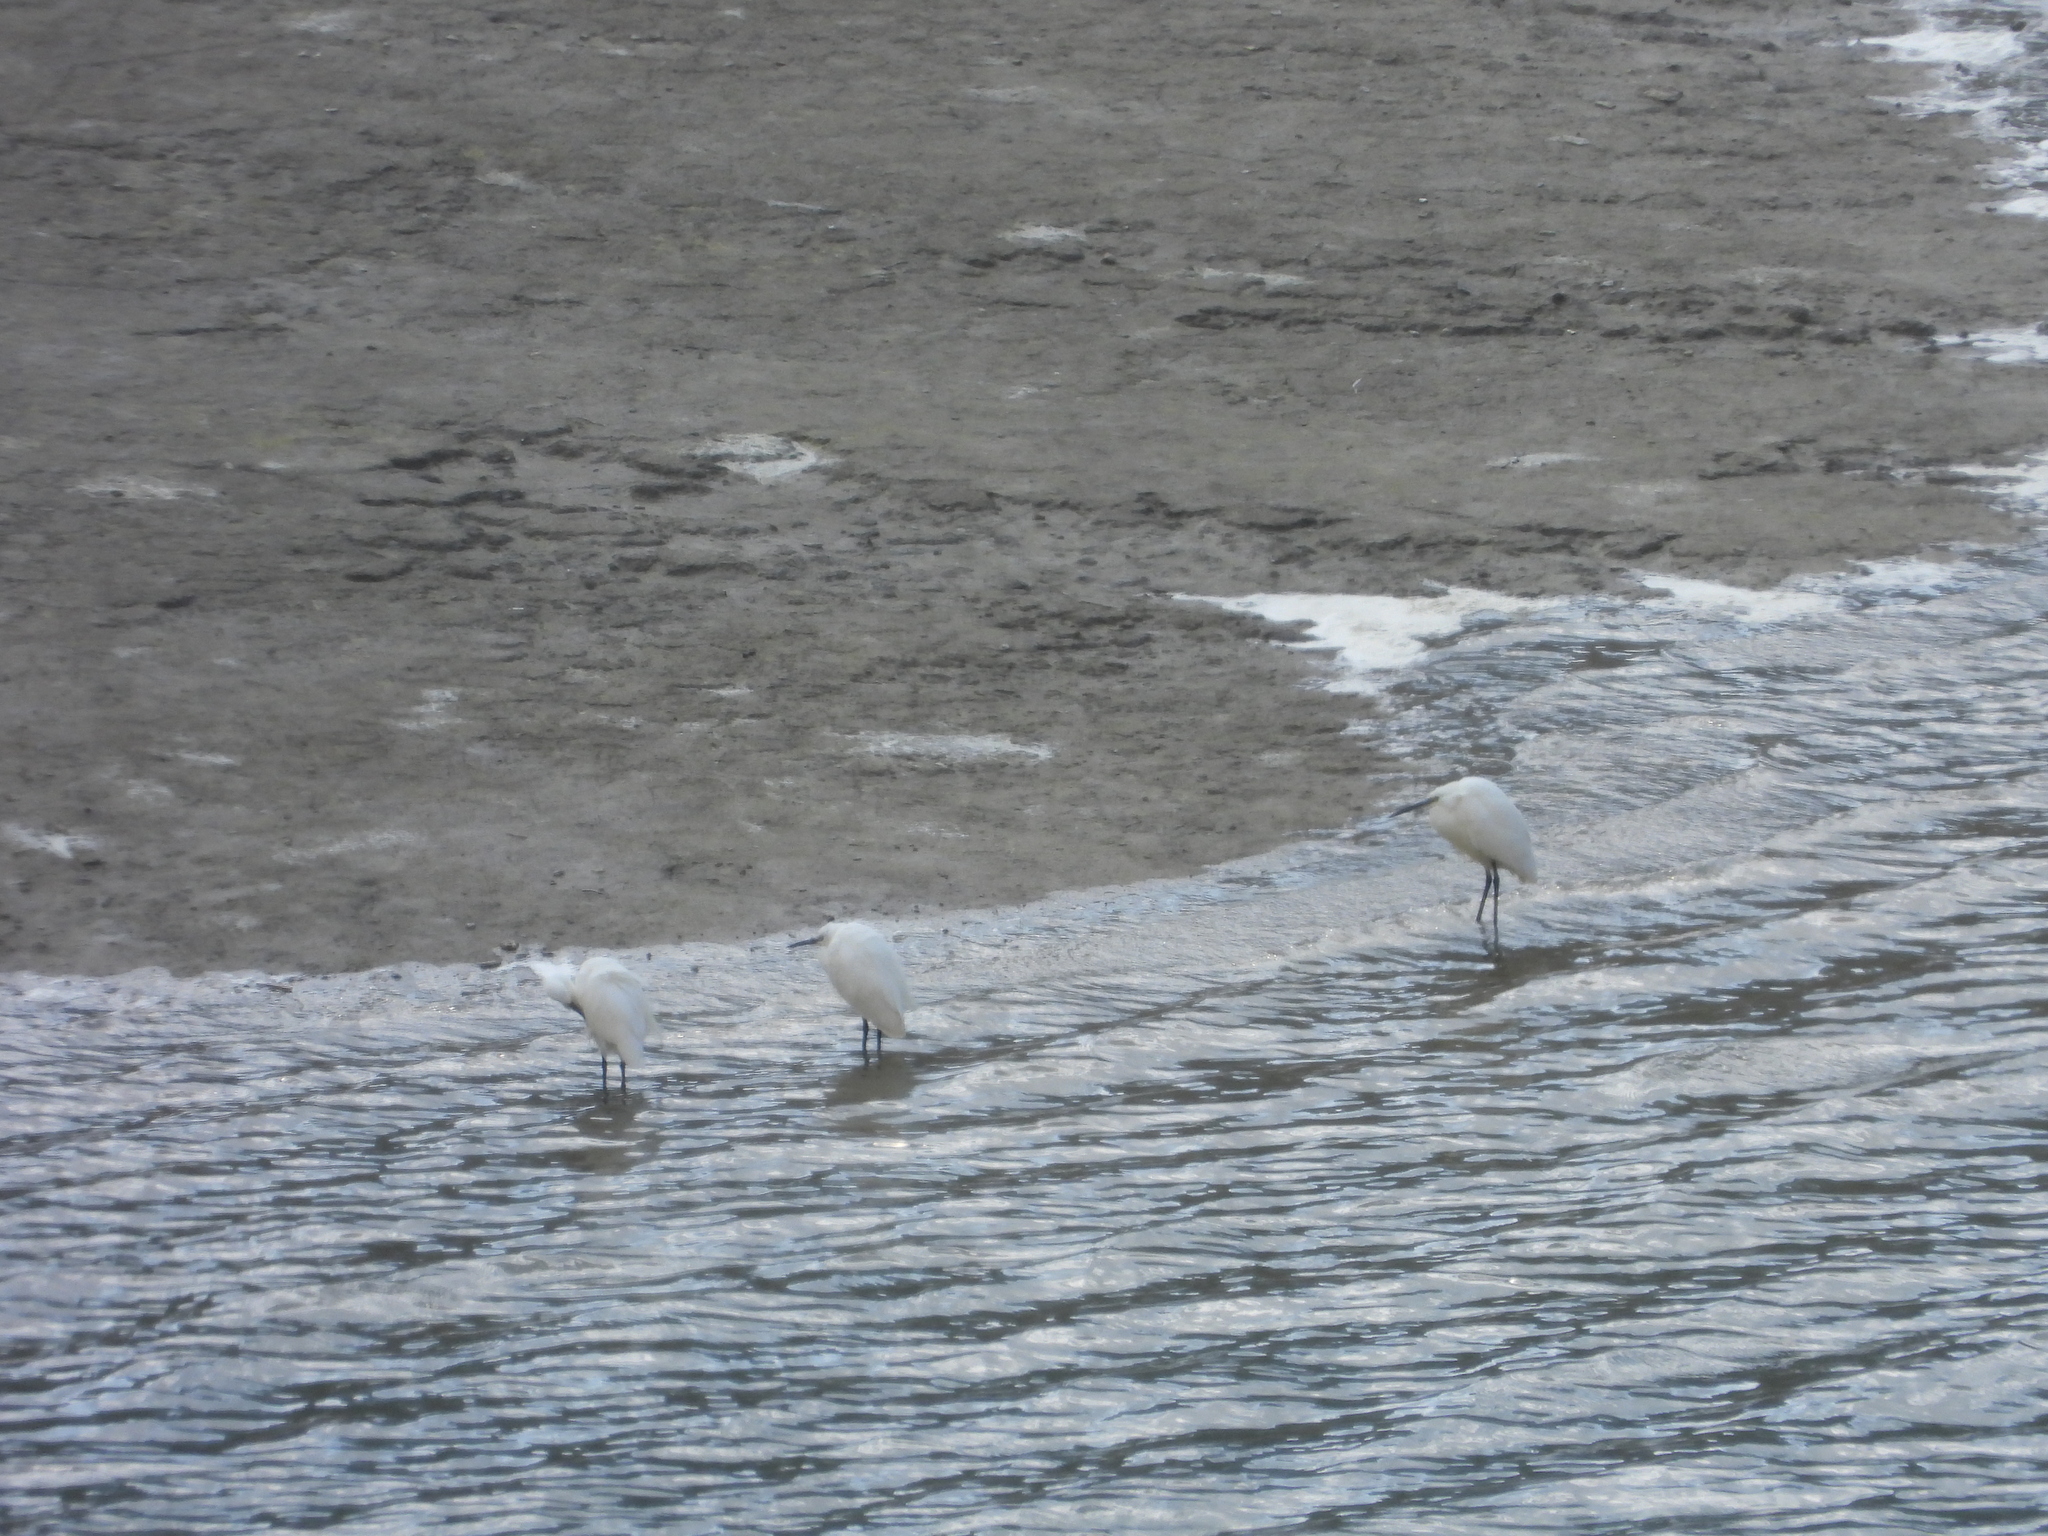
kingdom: Animalia
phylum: Chordata
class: Aves
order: Pelecaniformes
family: Ardeidae
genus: Egretta
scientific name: Egretta garzetta
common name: Little egret
